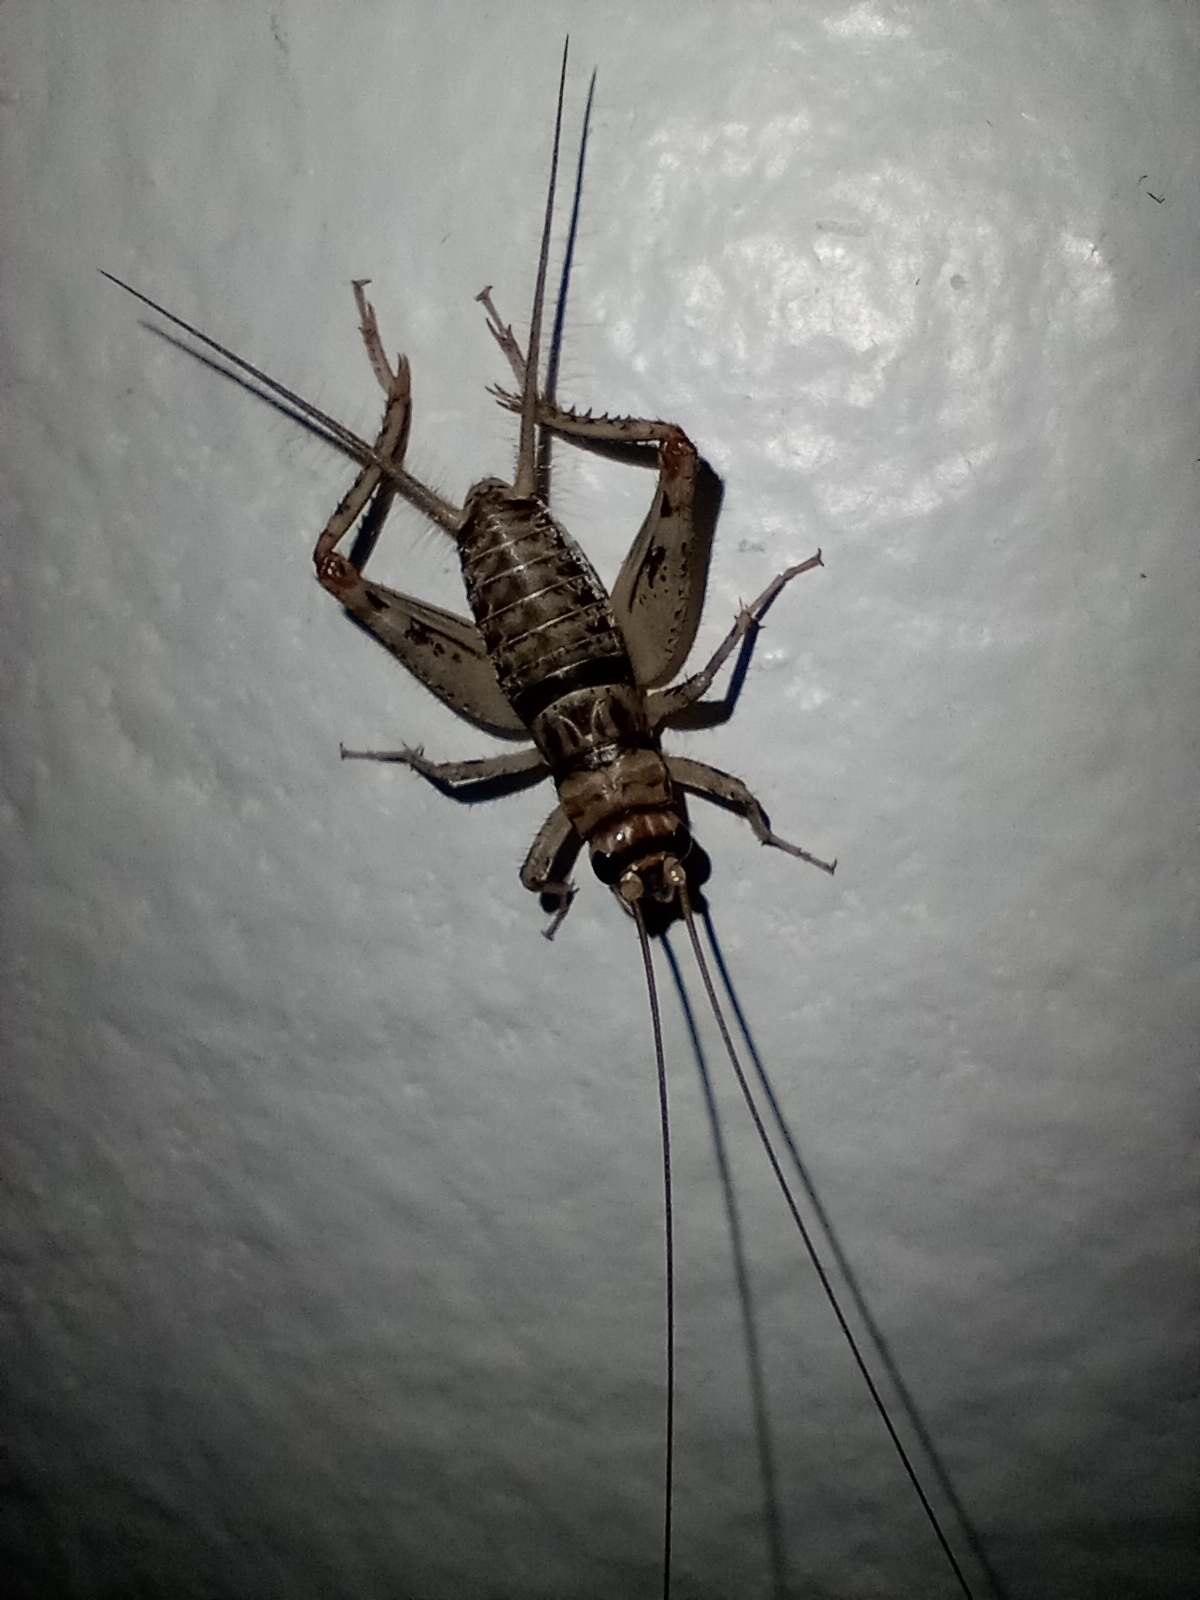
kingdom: Animalia
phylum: Arthropoda
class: Insecta
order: Orthoptera
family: Gryllidae
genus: Gryllodes
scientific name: Gryllodes sigillatus
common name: Tropical house cricket
